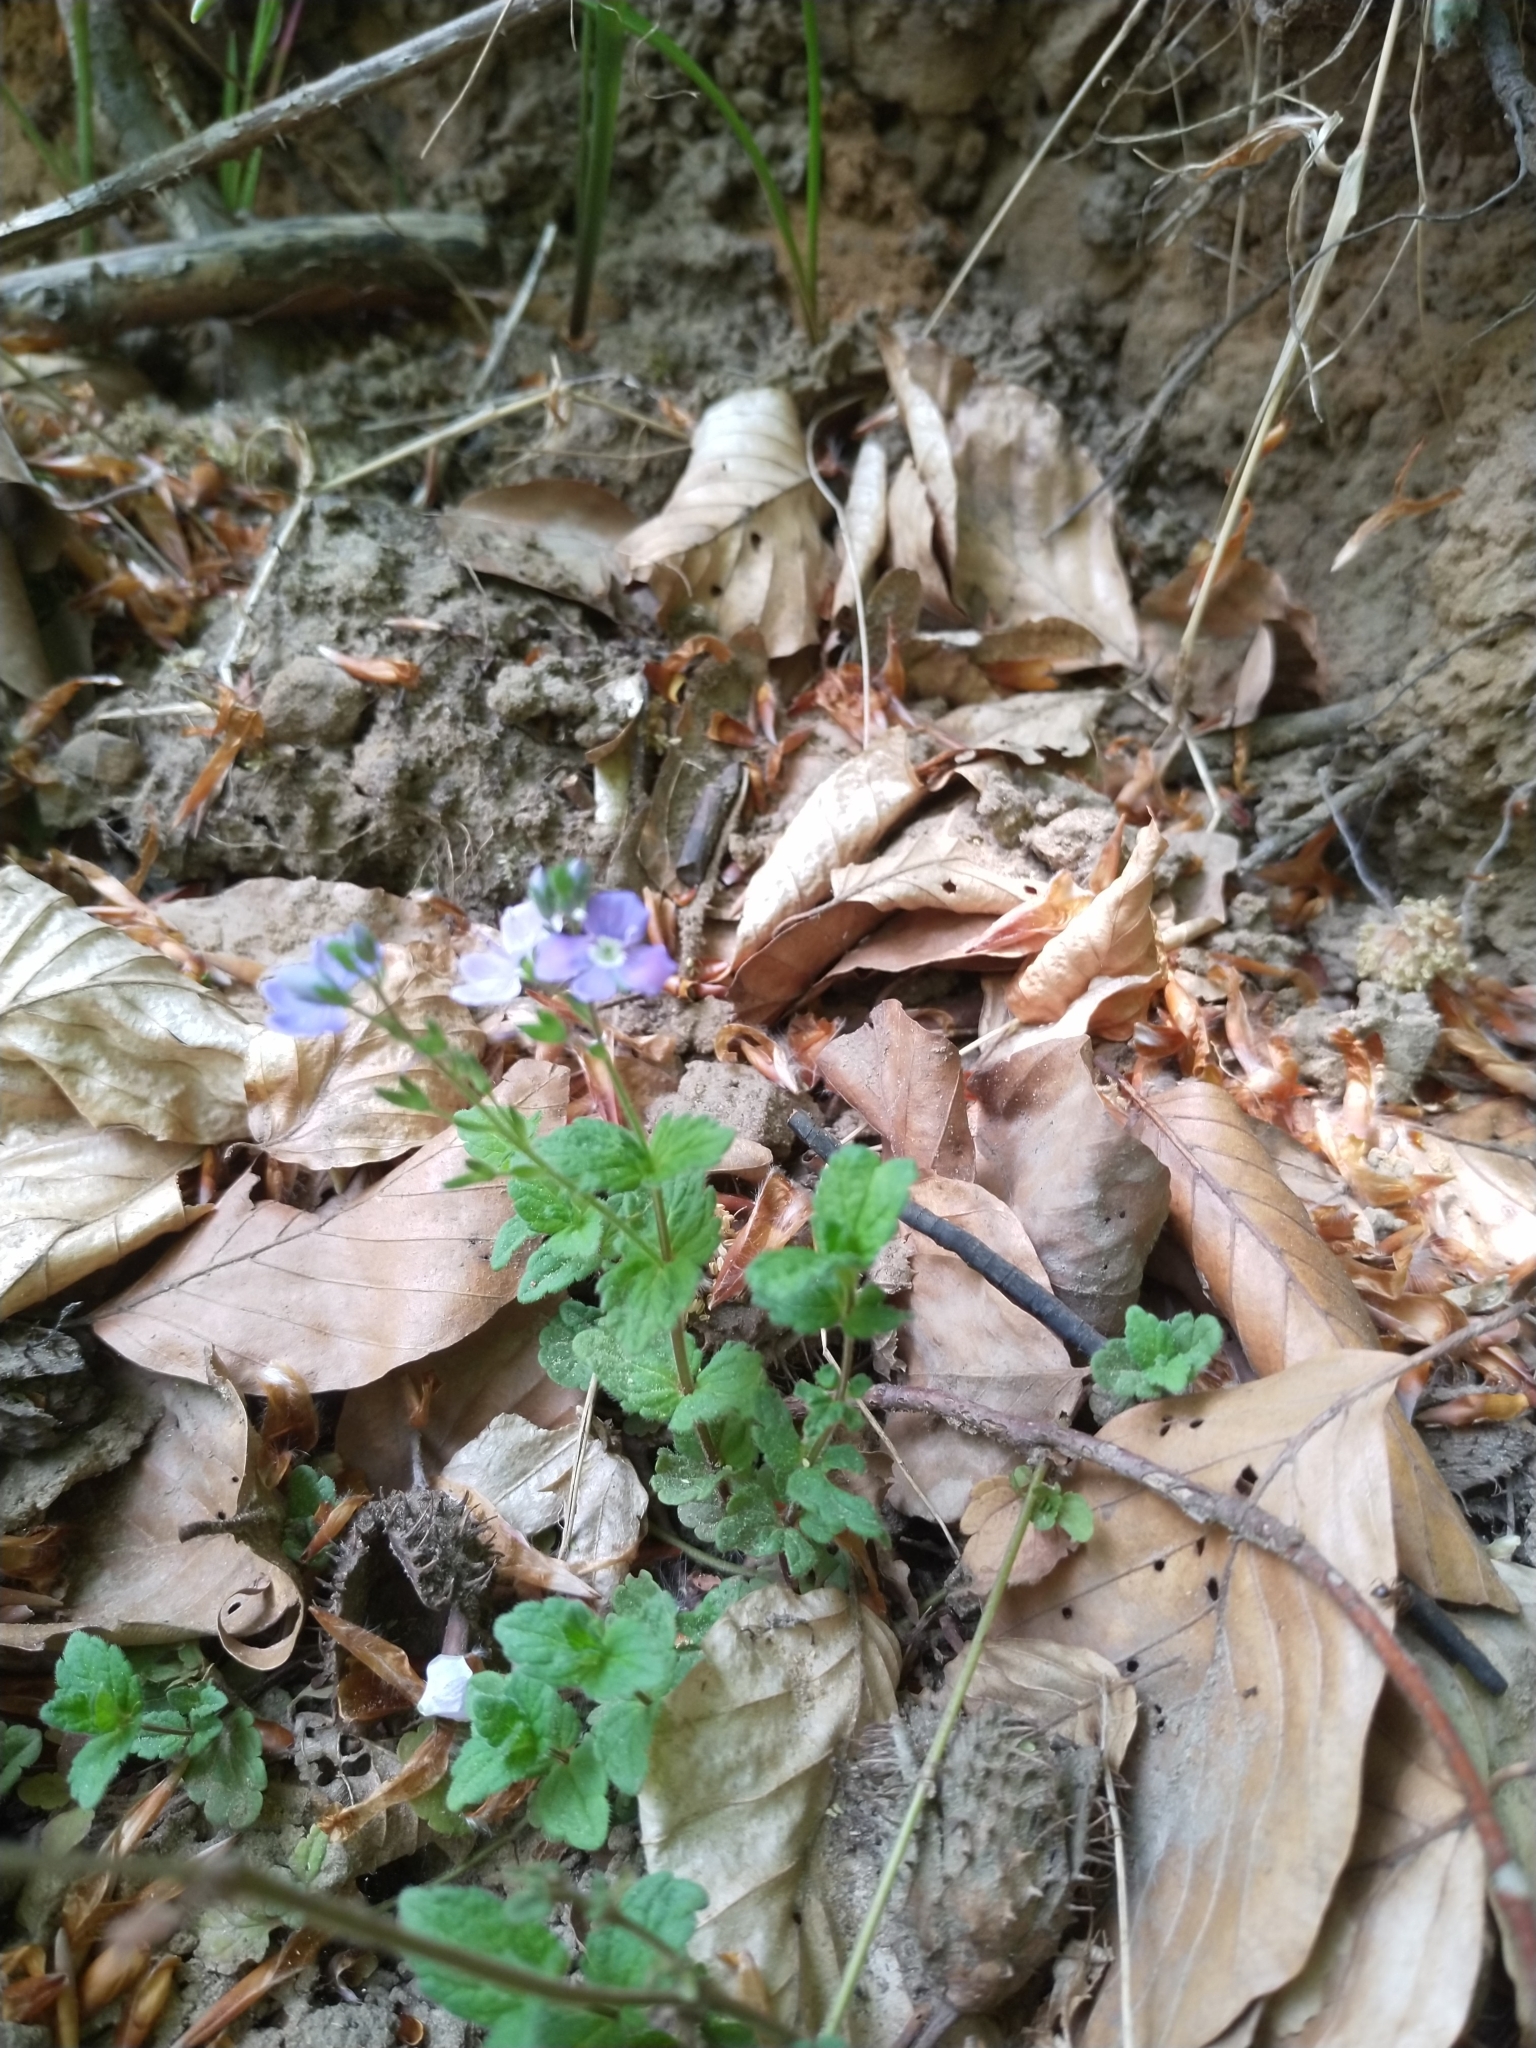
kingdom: Plantae
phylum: Tracheophyta
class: Magnoliopsida
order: Lamiales
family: Plantaginaceae
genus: Veronica
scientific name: Veronica chamaedrys
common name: Germander speedwell
